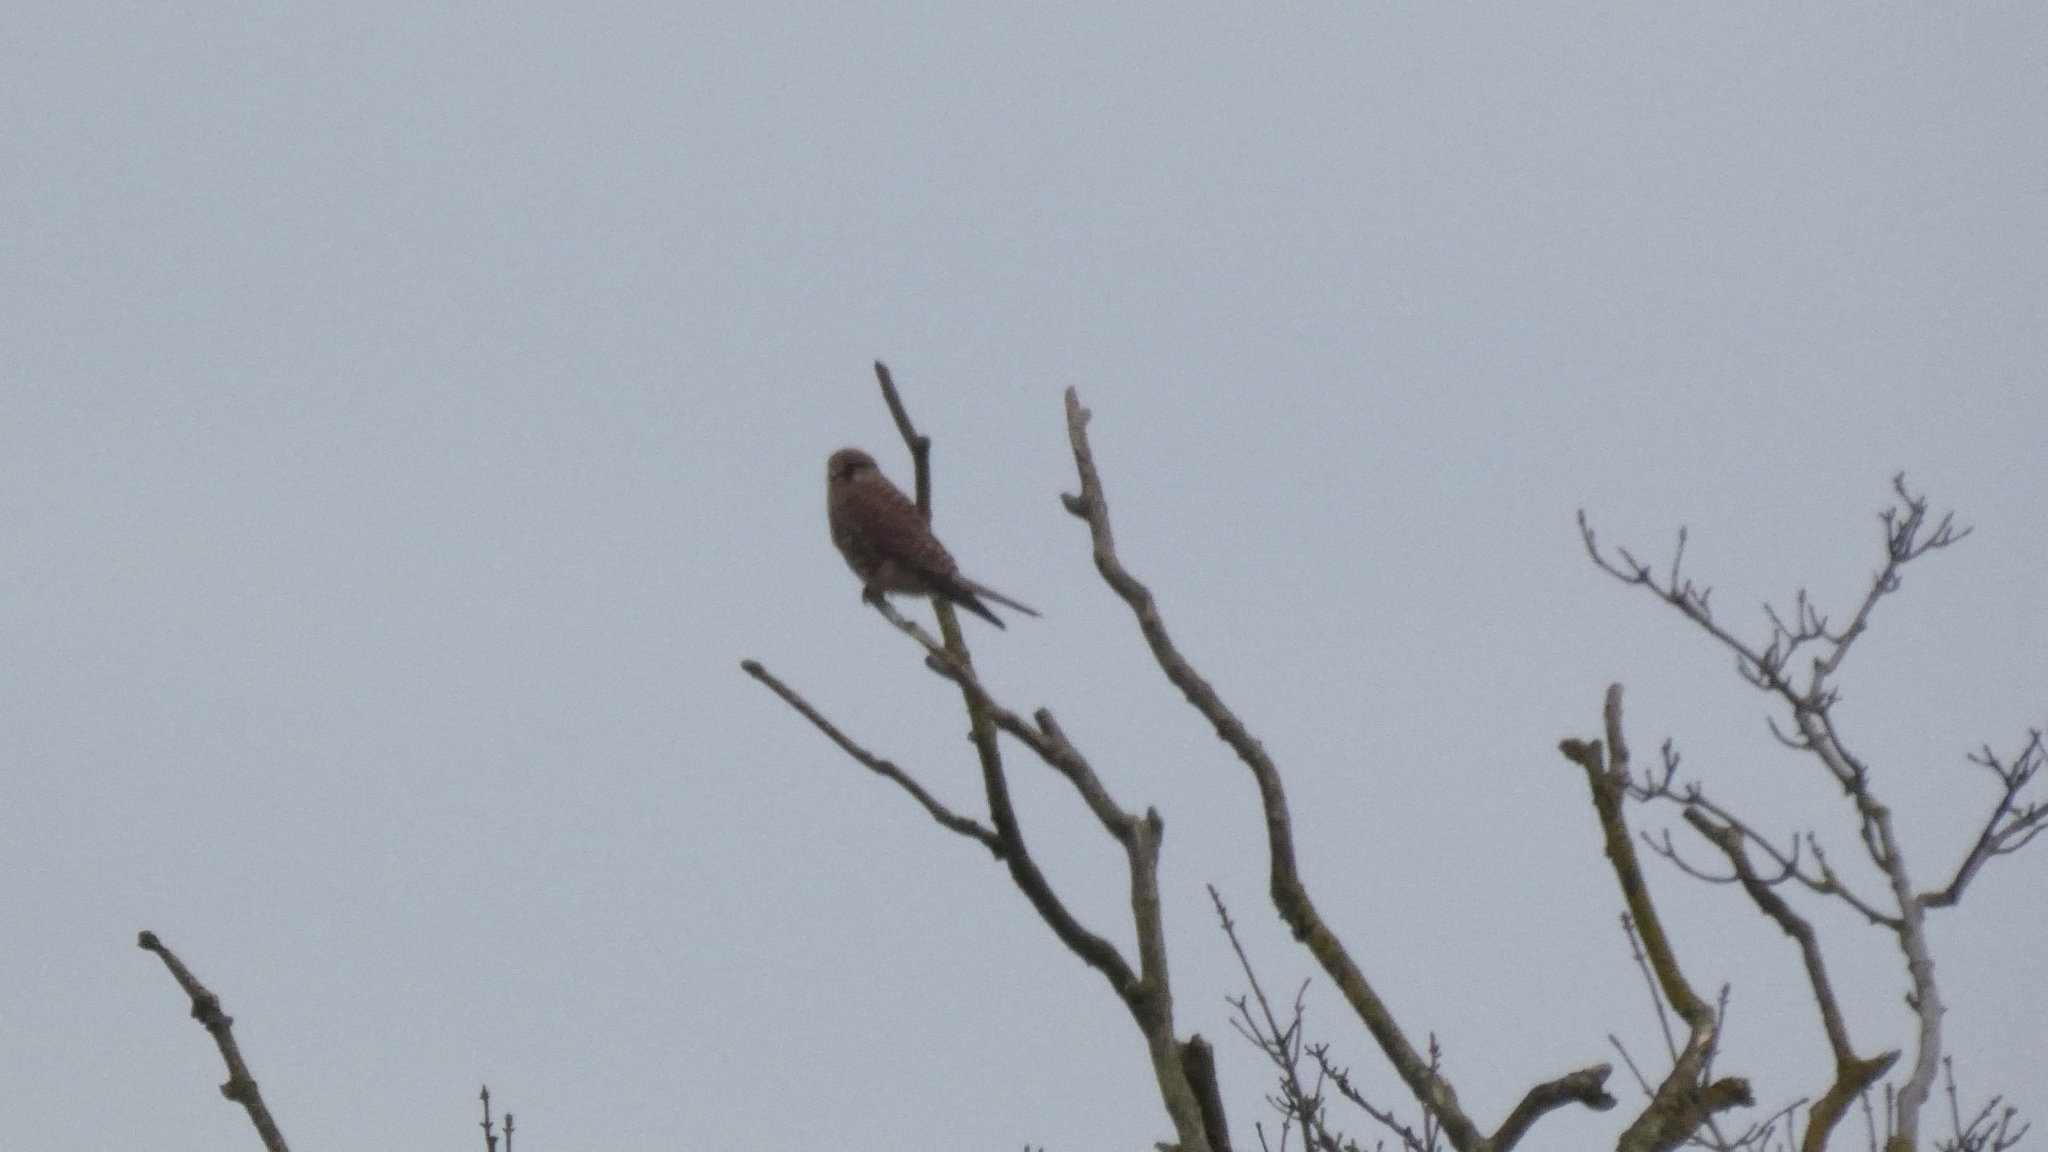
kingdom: Animalia
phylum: Chordata
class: Aves
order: Falconiformes
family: Falconidae
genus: Falco
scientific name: Falco tinnunculus
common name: Common kestrel
